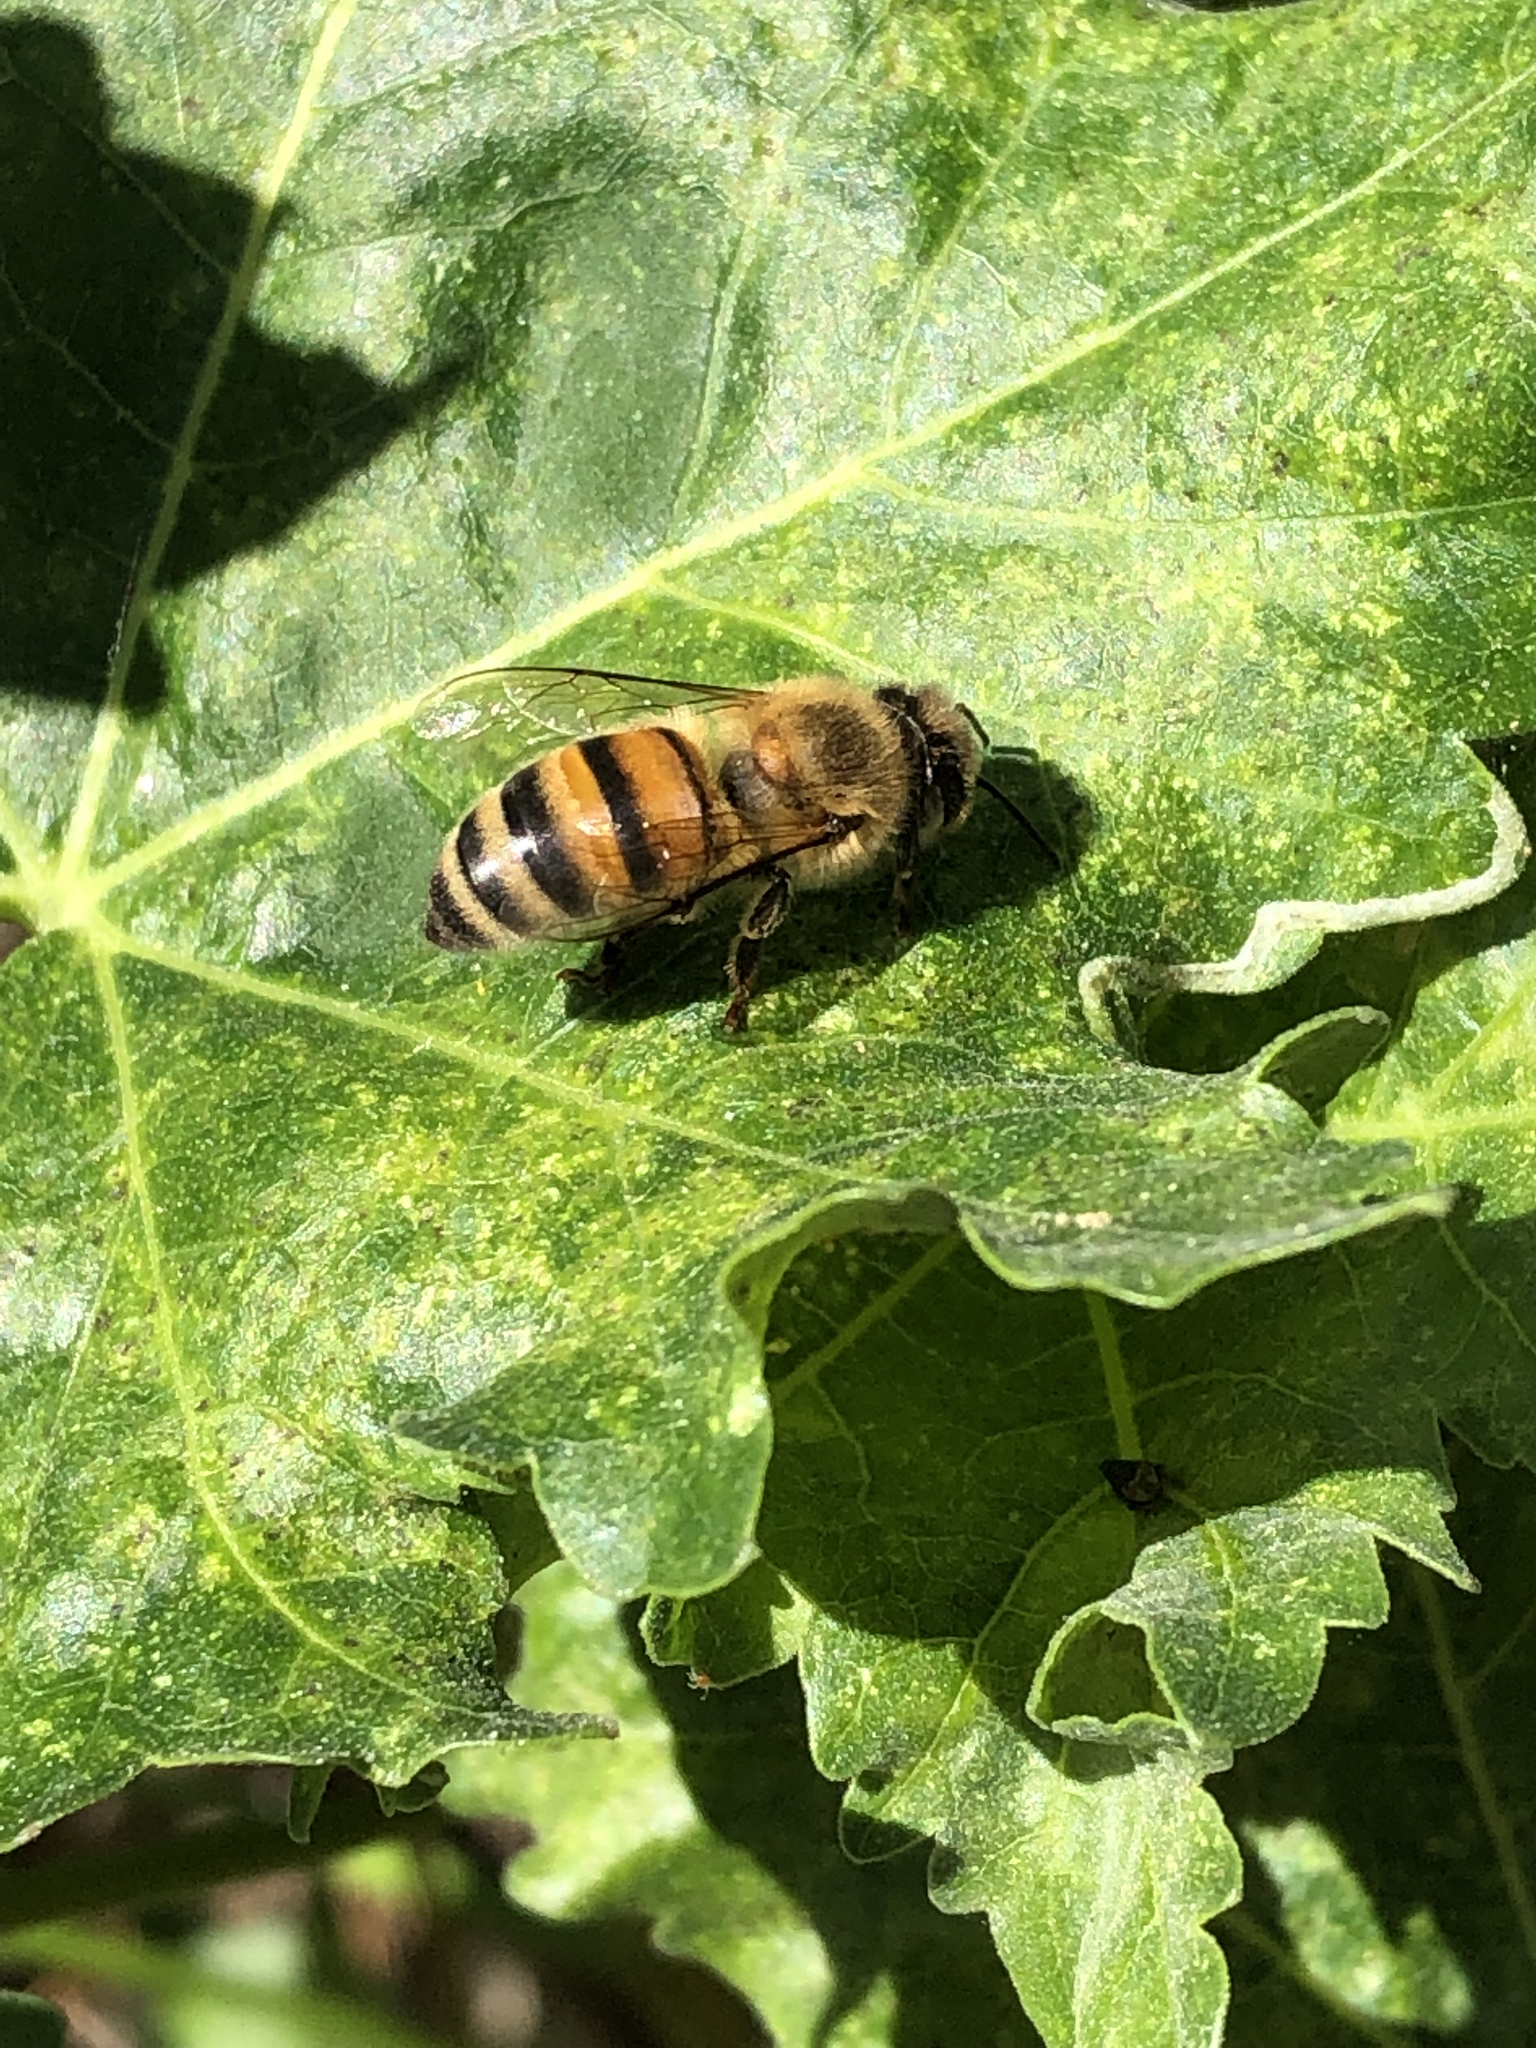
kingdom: Animalia
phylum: Arthropoda
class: Insecta
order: Hymenoptera
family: Apidae
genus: Apis
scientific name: Apis mellifera
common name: Honey bee
